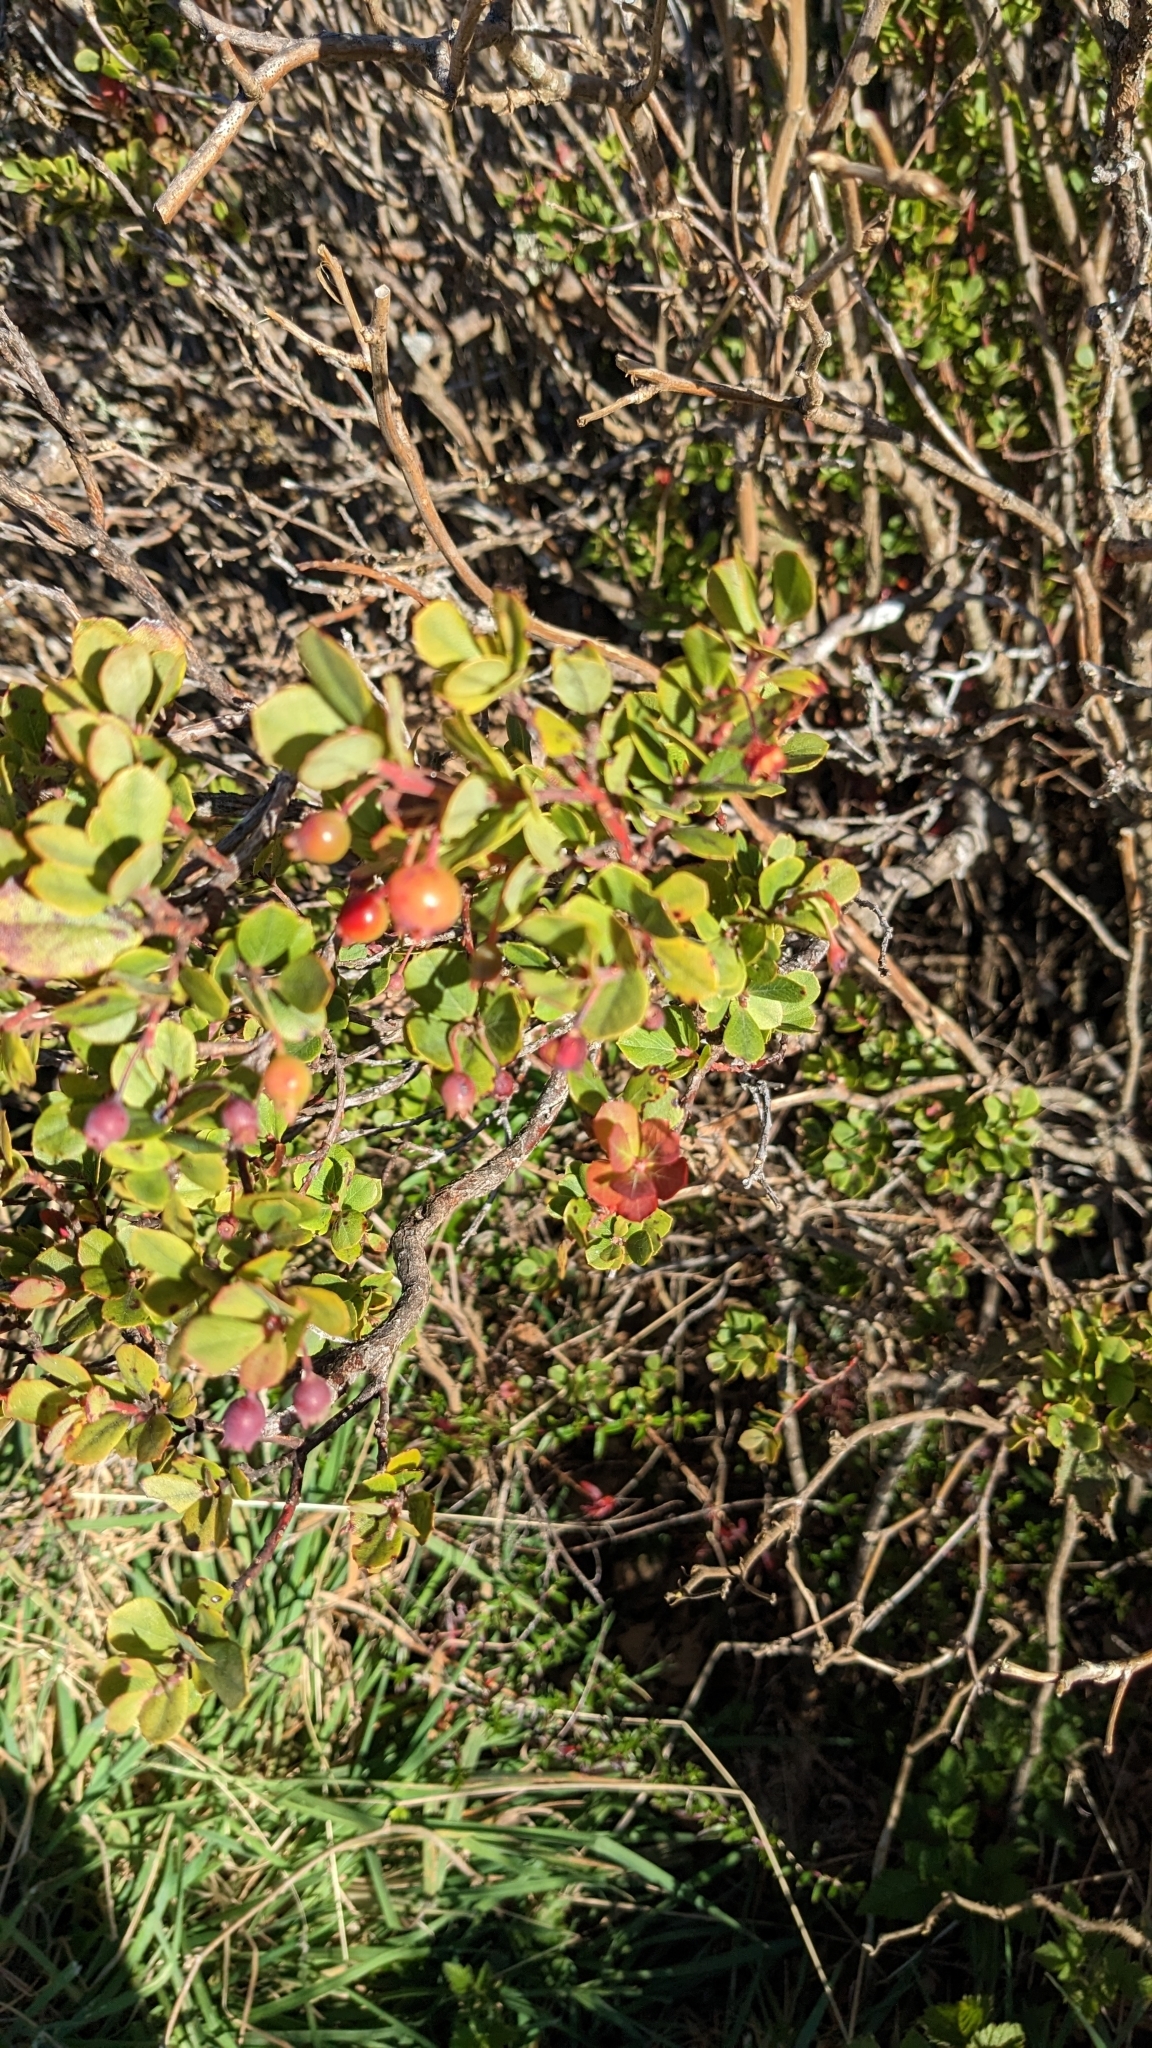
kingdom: Plantae
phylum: Tracheophyta
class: Magnoliopsida
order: Ericales
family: Ericaceae
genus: Vaccinium
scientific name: Vaccinium reticulatum
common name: Ohelo
